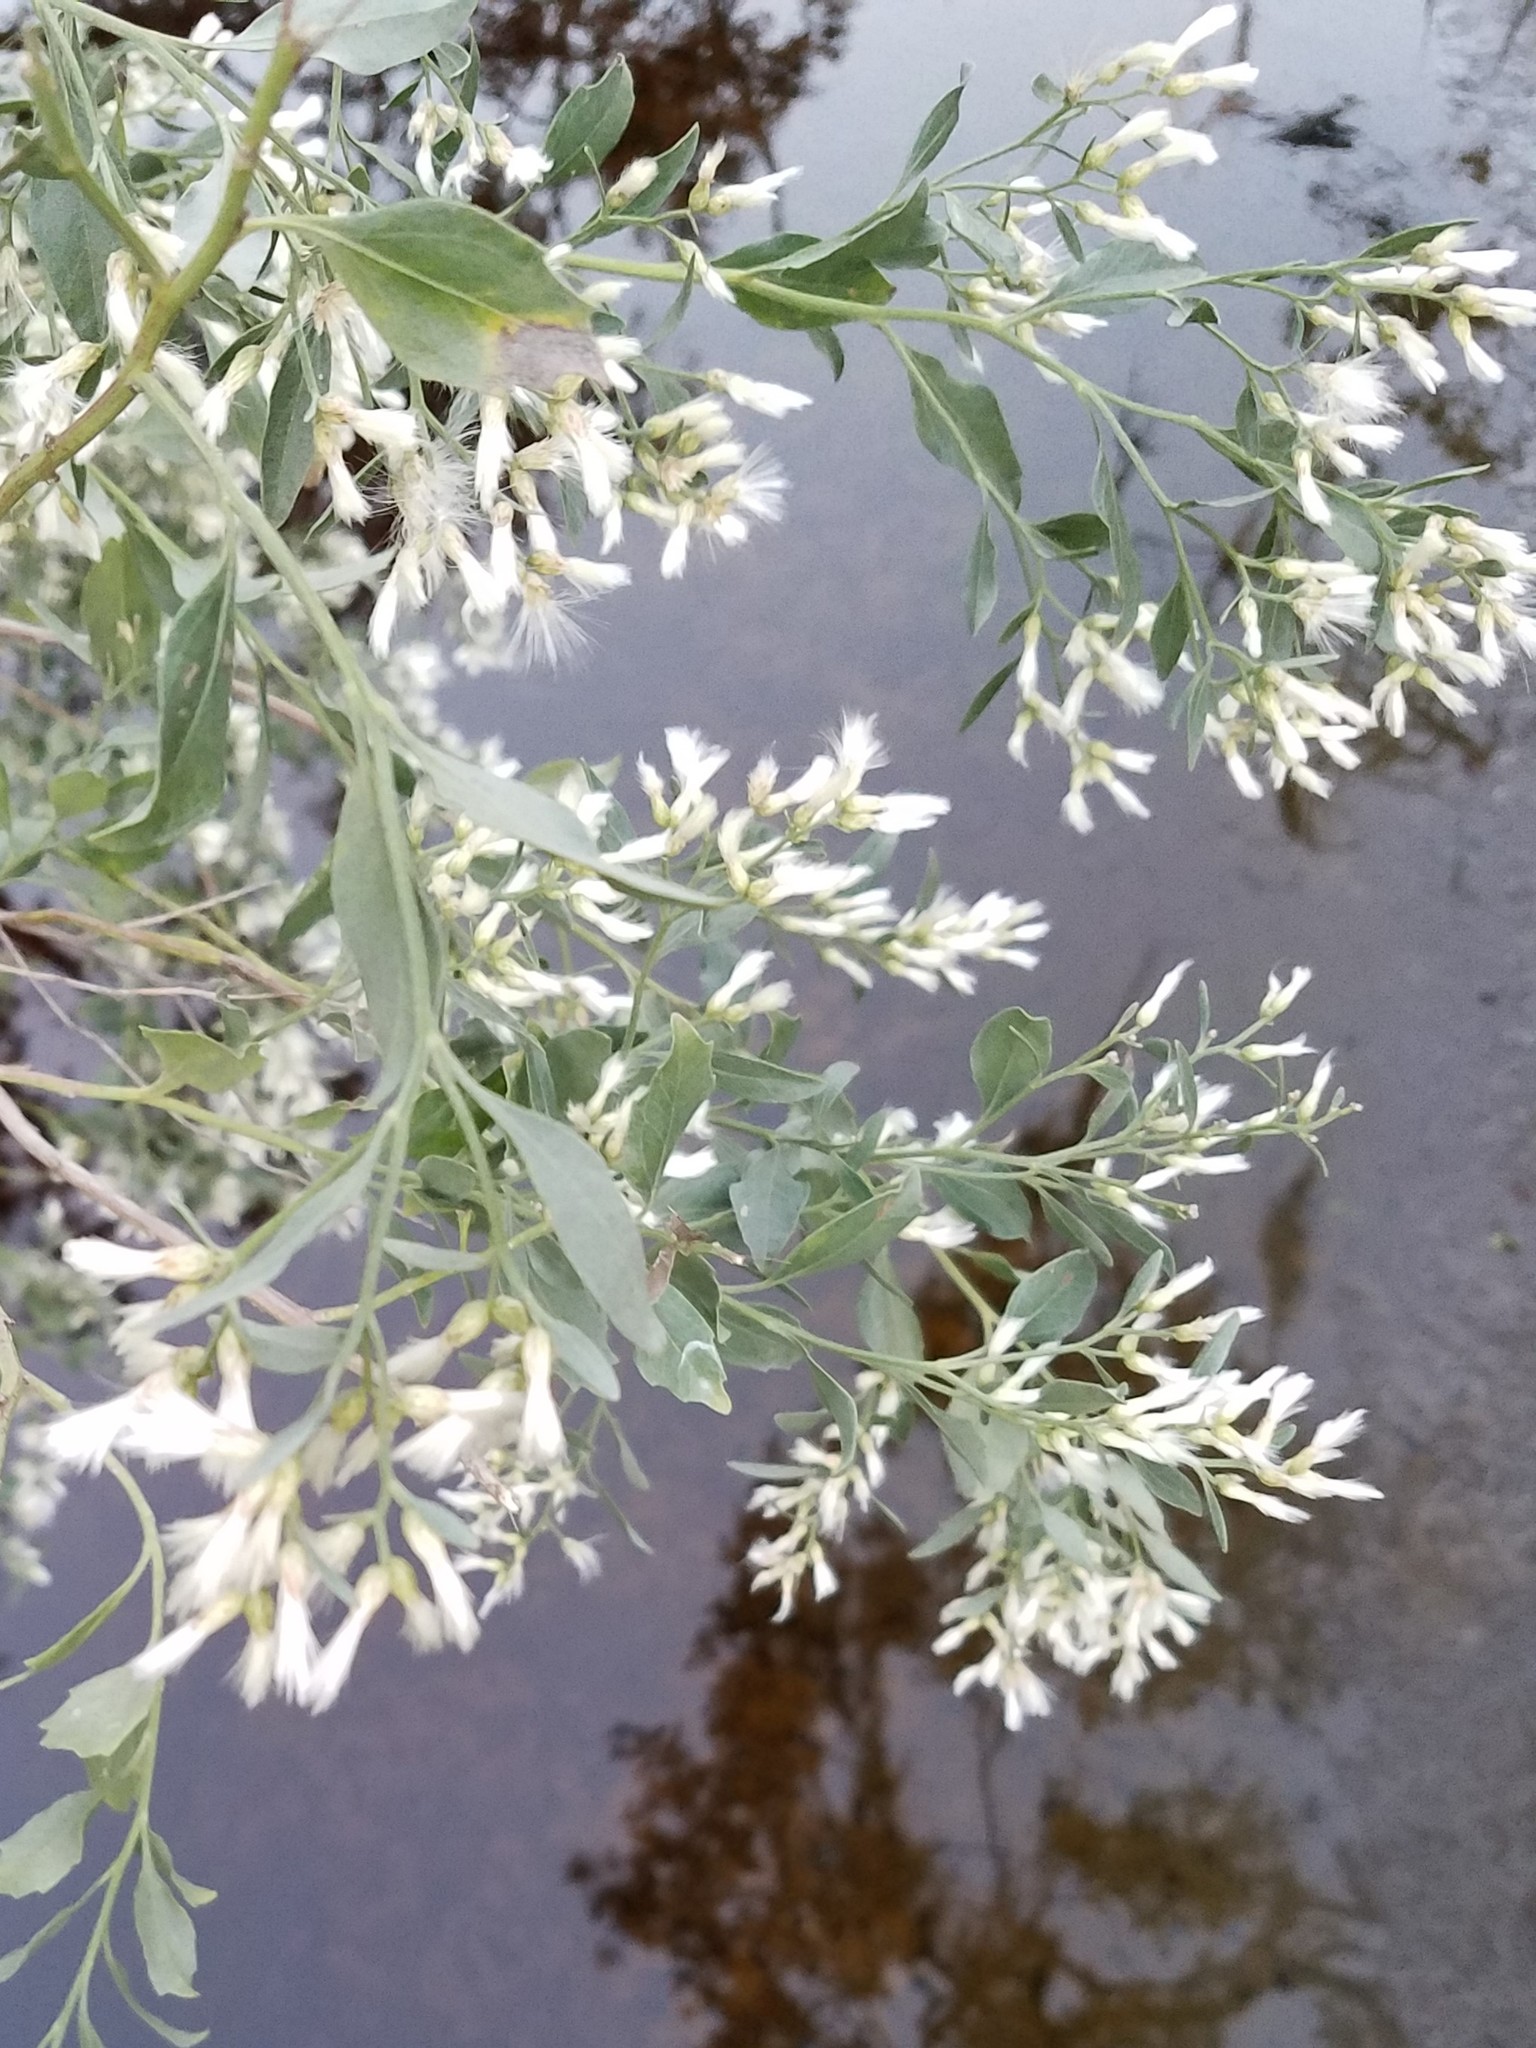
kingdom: Plantae
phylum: Tracheophyta
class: Magnoliopsida
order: Asterales
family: Asteraceae
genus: Baccharis
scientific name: Baccharis halimifolia
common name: Eastern baccharis
